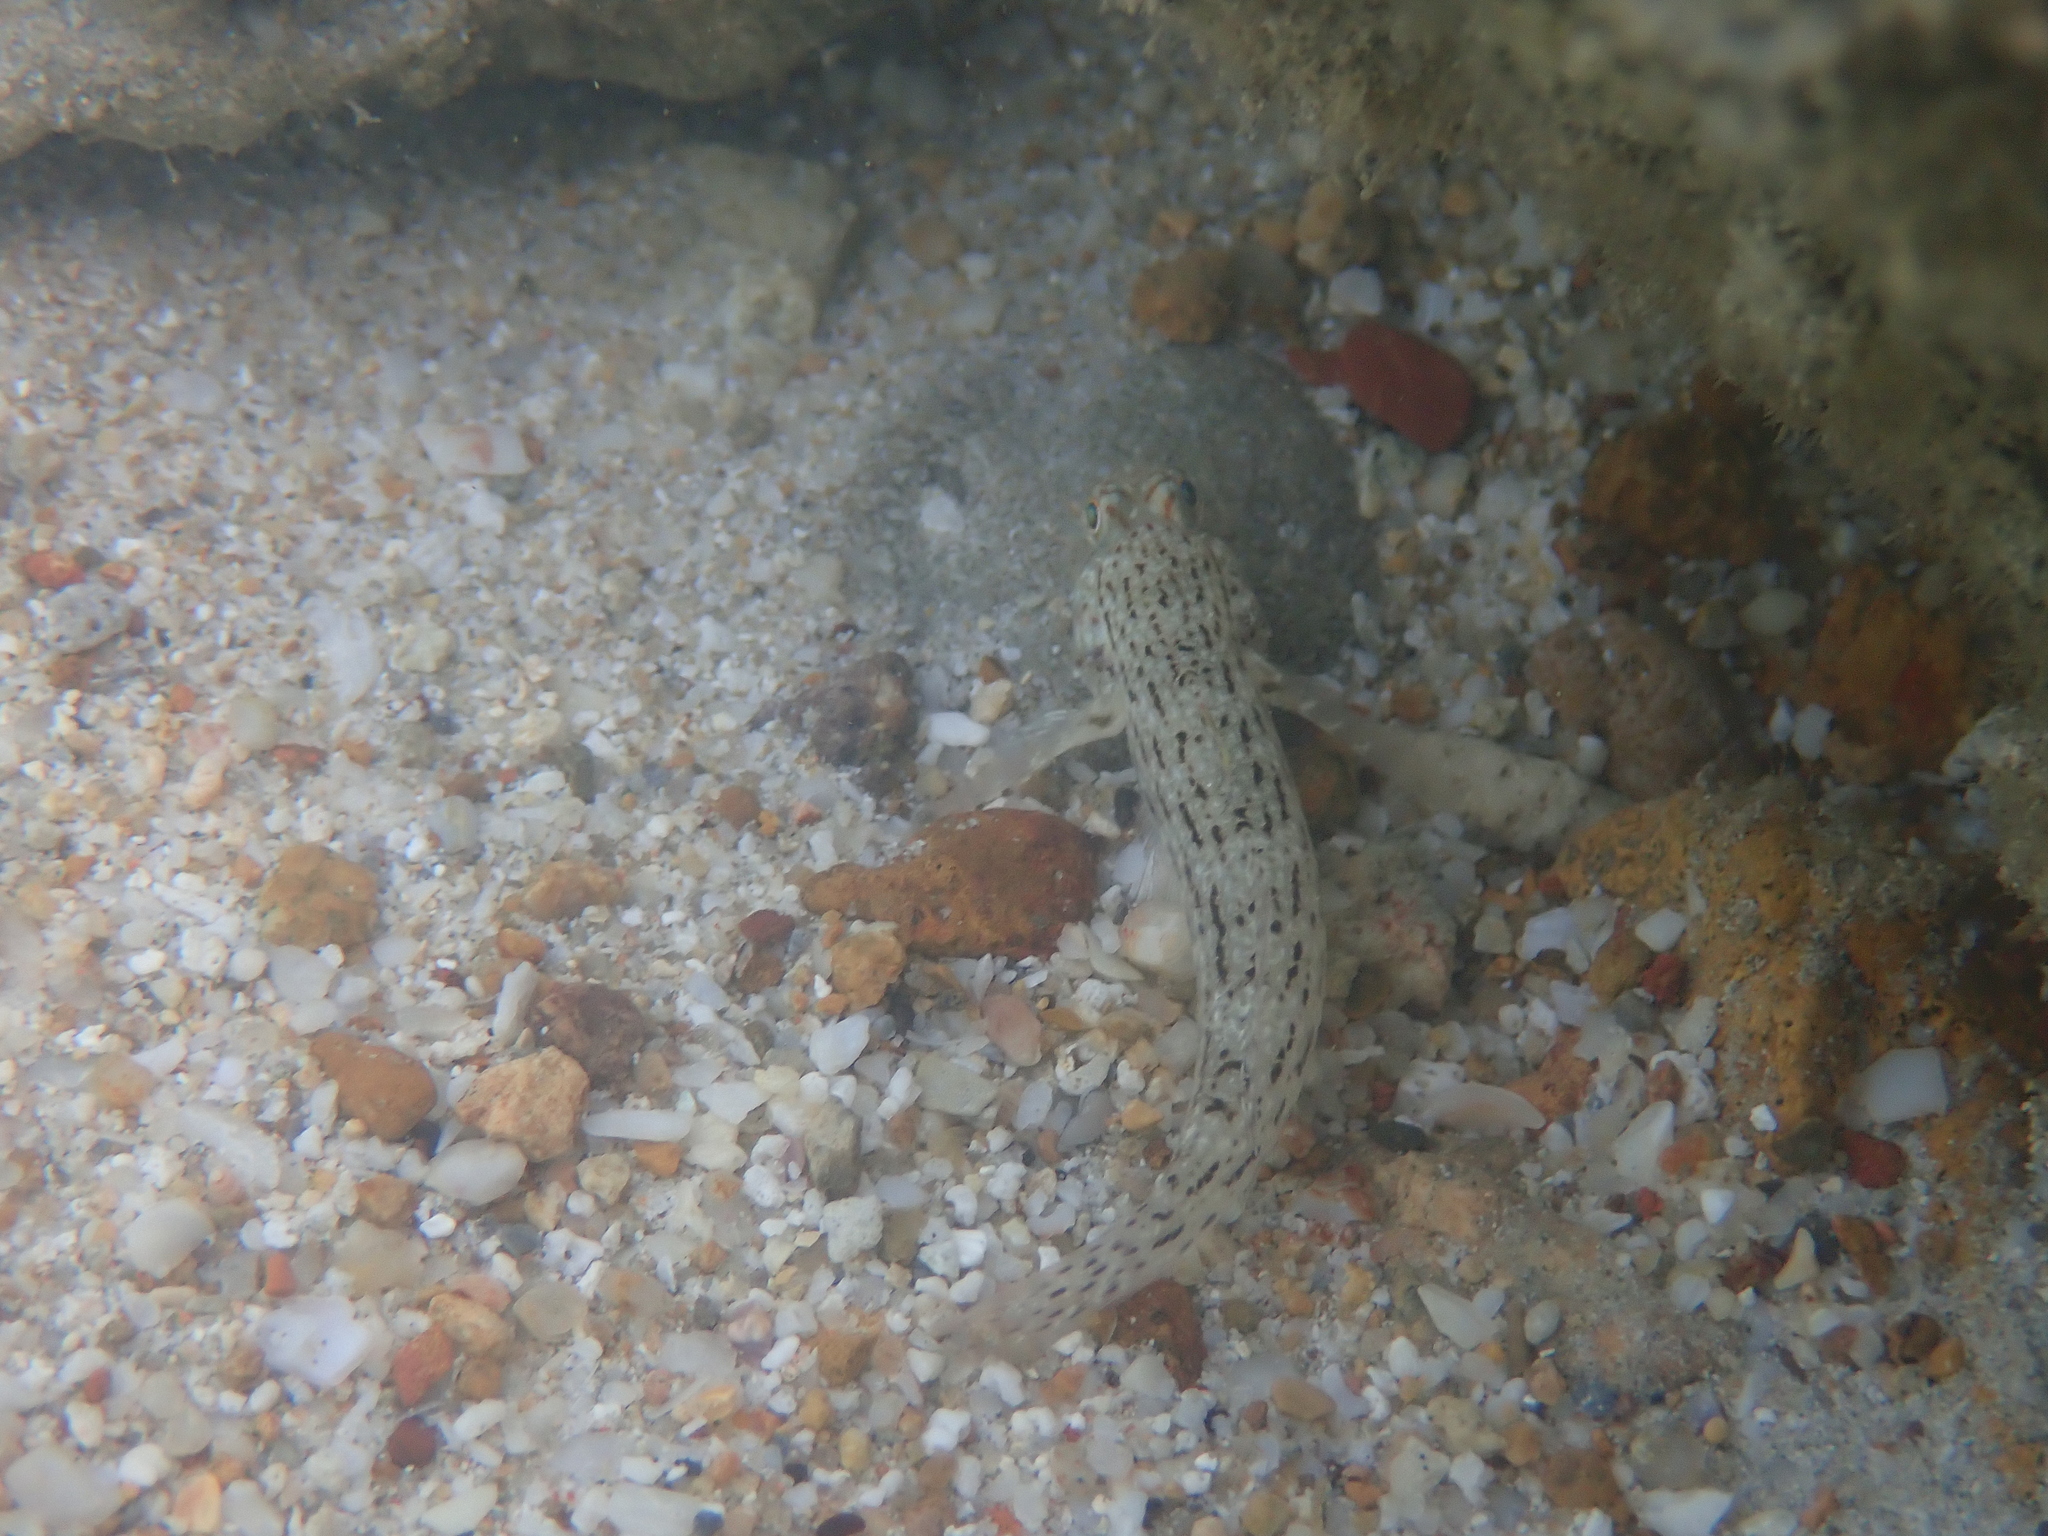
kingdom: Animalia
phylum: Chordata
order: Perciformes
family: Gobiidae
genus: Istigobius
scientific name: Istigobius ornatus
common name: Ornate goby
